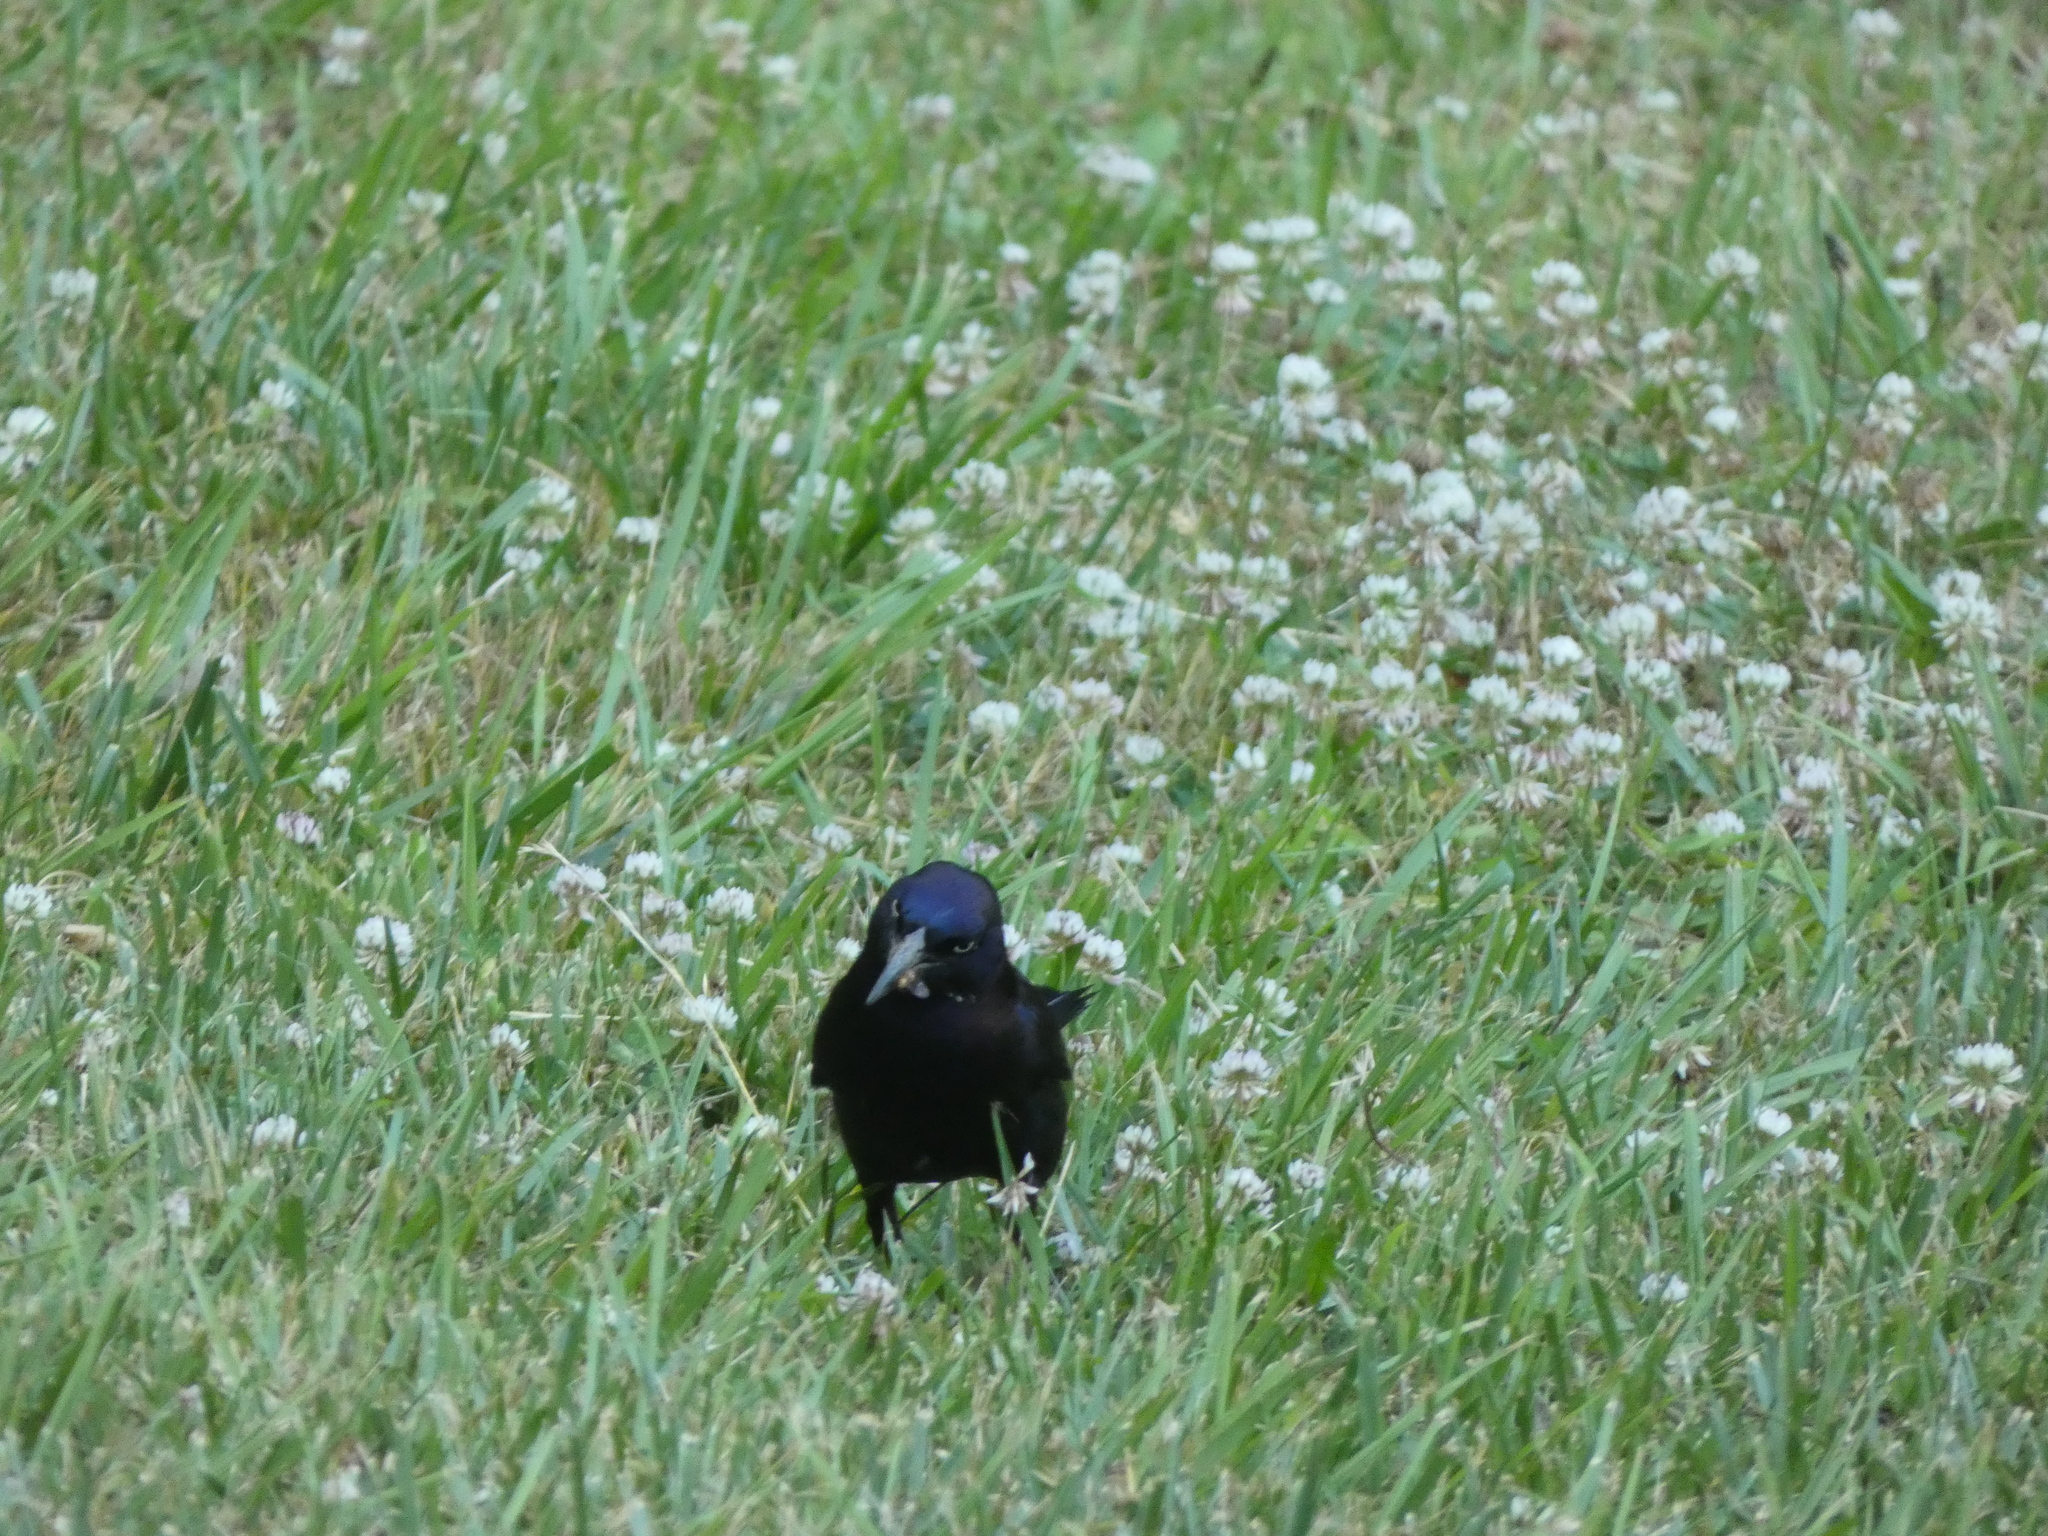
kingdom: Animalia
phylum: Chordata
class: Aves
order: Passeriformes
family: Icteridae
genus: Quiscalus
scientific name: Quiscalus quiscula
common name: Common grackle
